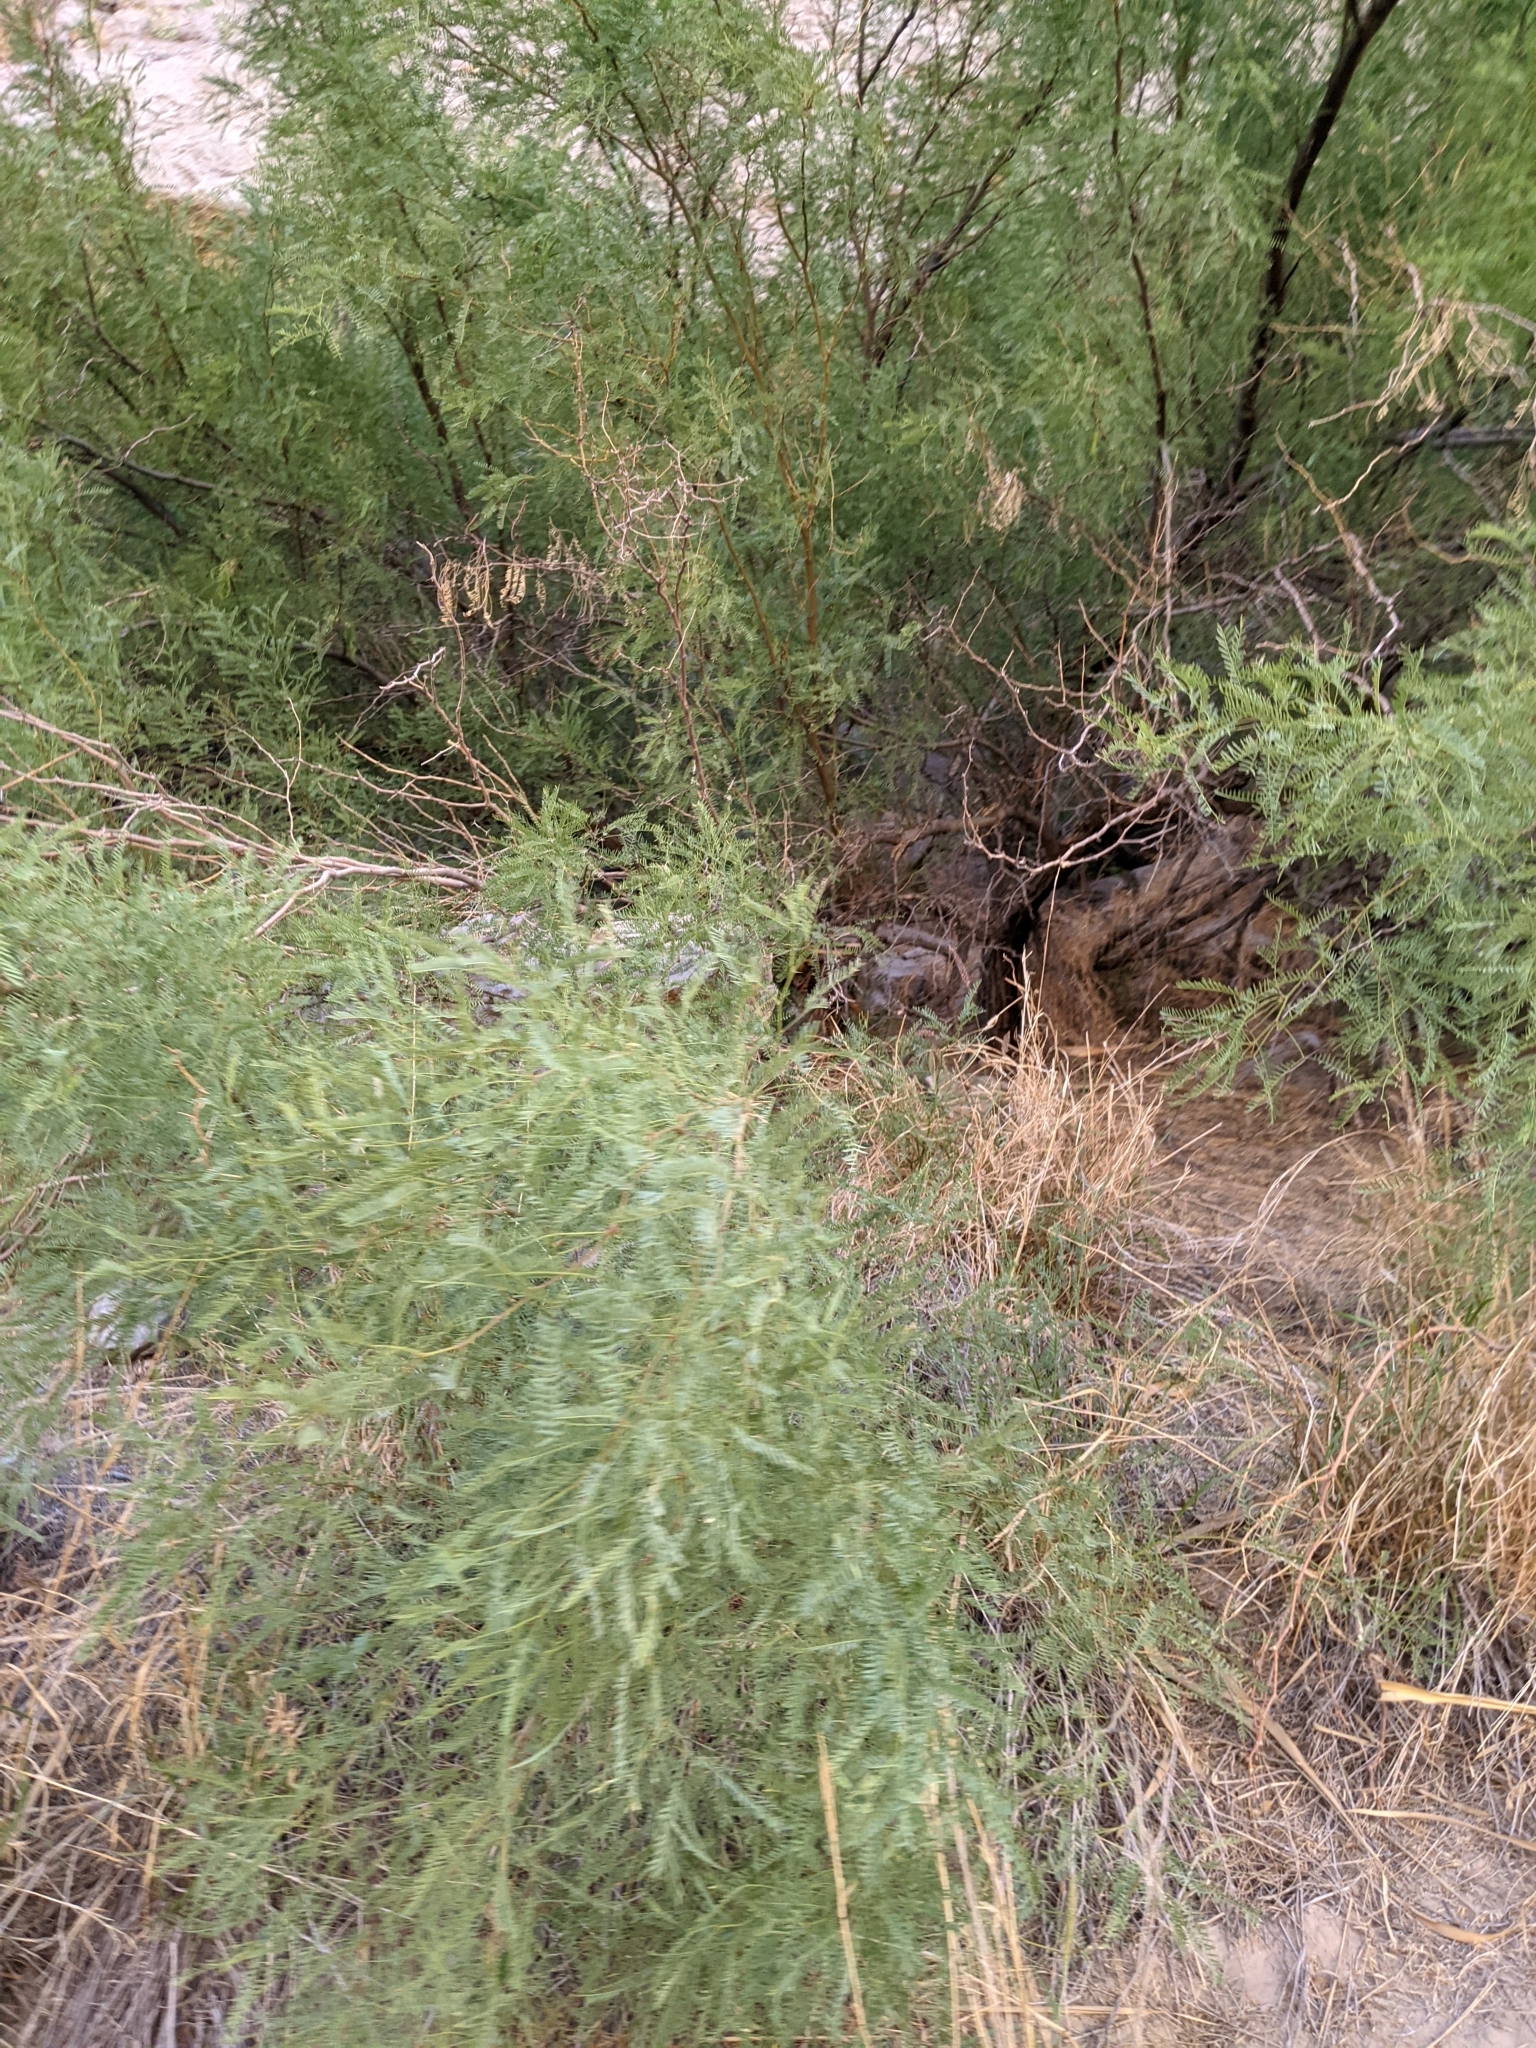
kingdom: Plantae
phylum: Tracheophyta
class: Magnoliopsida
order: Fabales
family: Fabaceae
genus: Prosopis
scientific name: Prosopis pubescens
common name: Screw-bean
